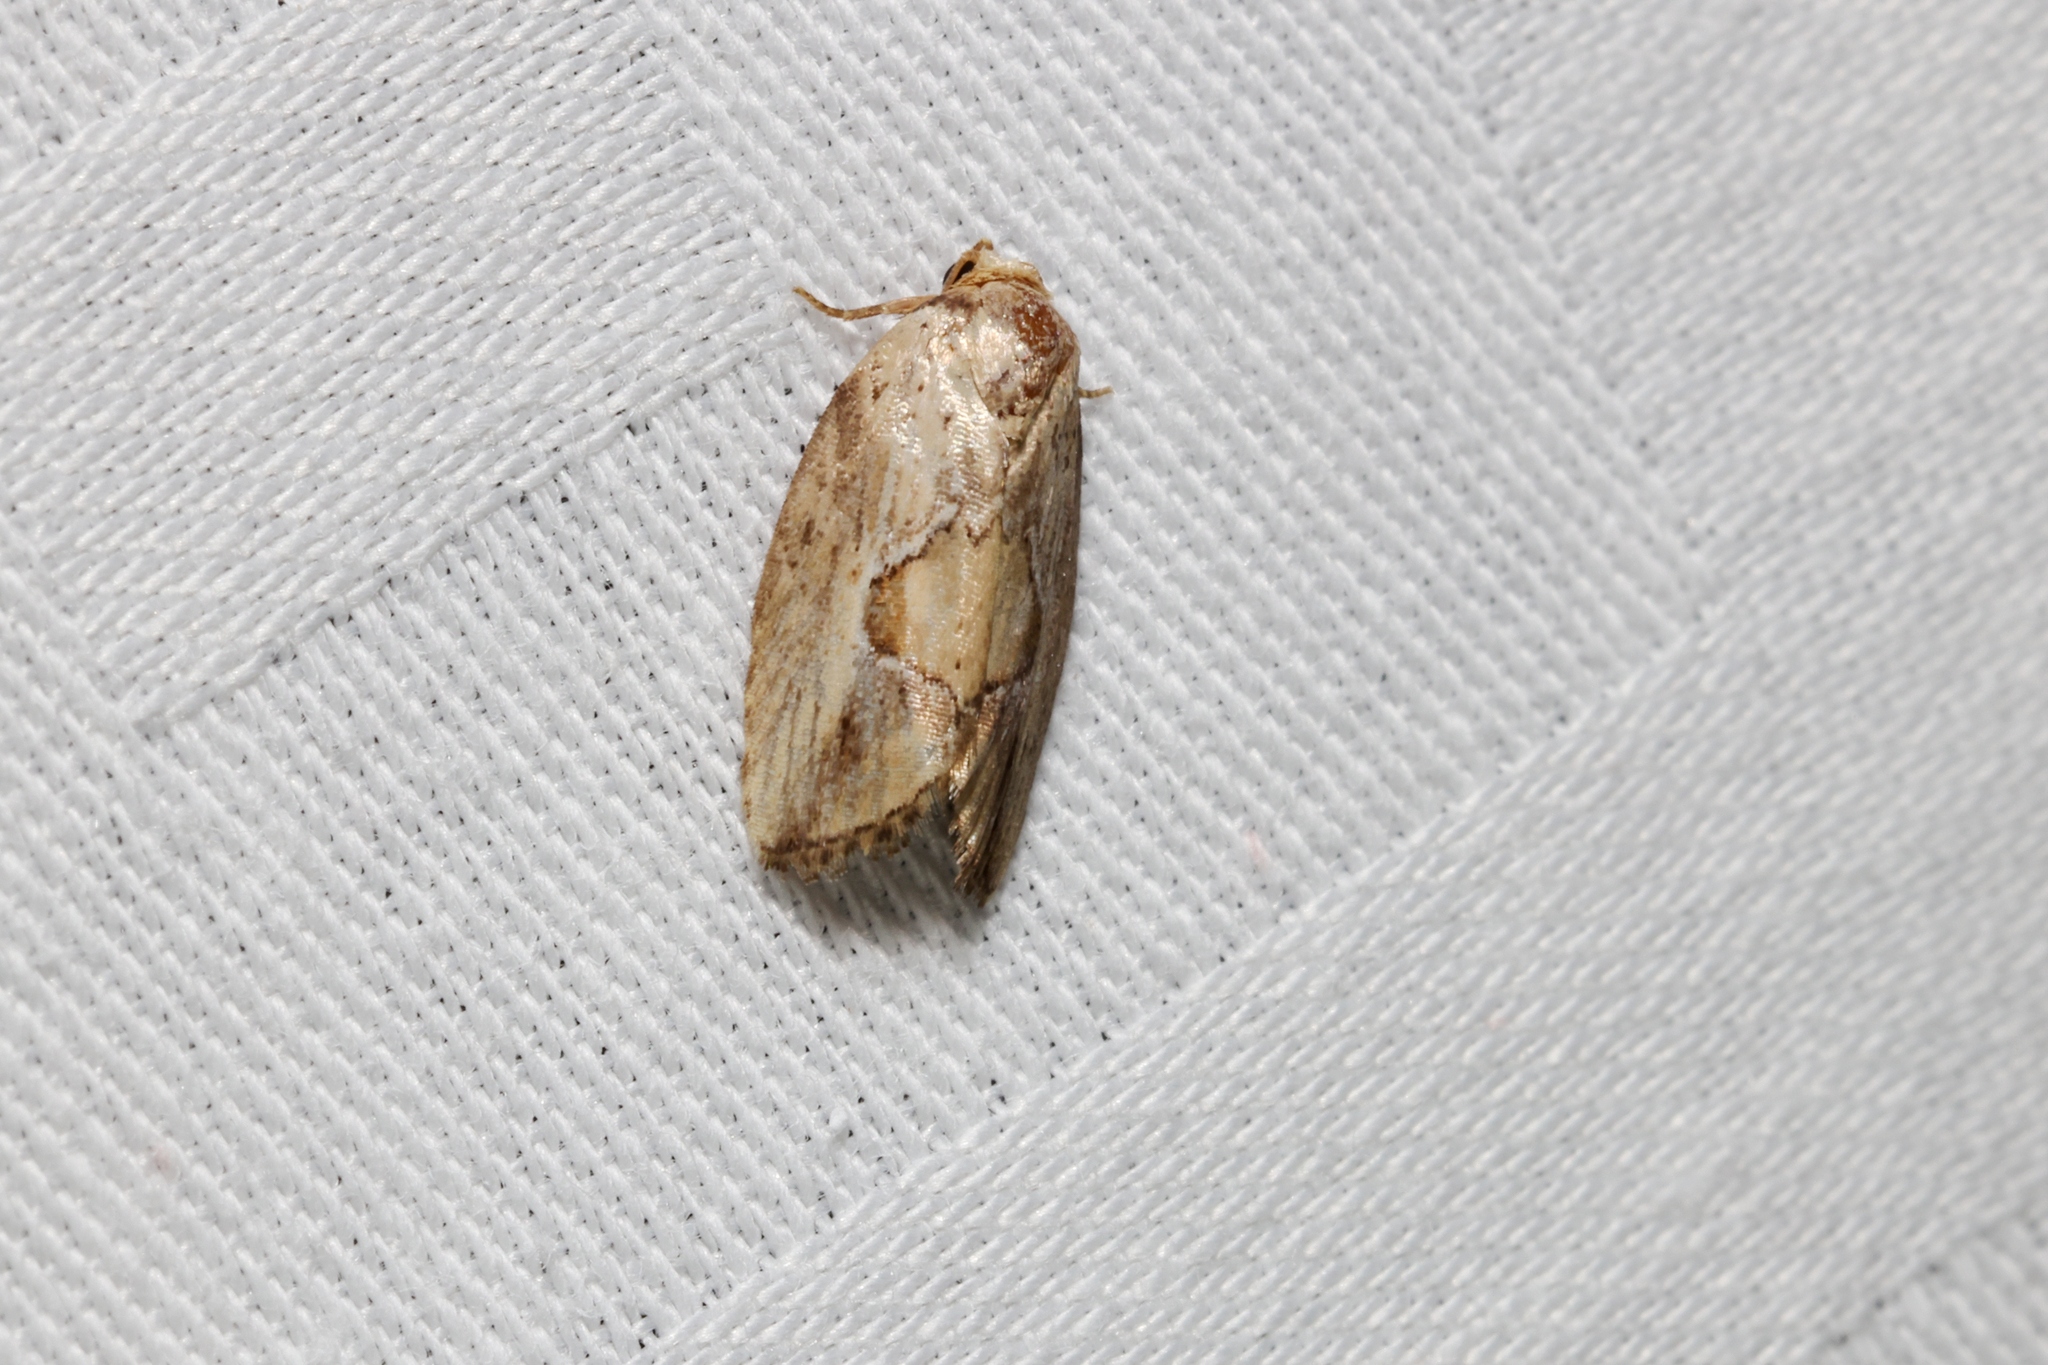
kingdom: Animalia
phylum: Arthropoda
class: Insecta
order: Lepidoptera
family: Noctuidae
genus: Strotihypera
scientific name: Strotihypera macroplaga
